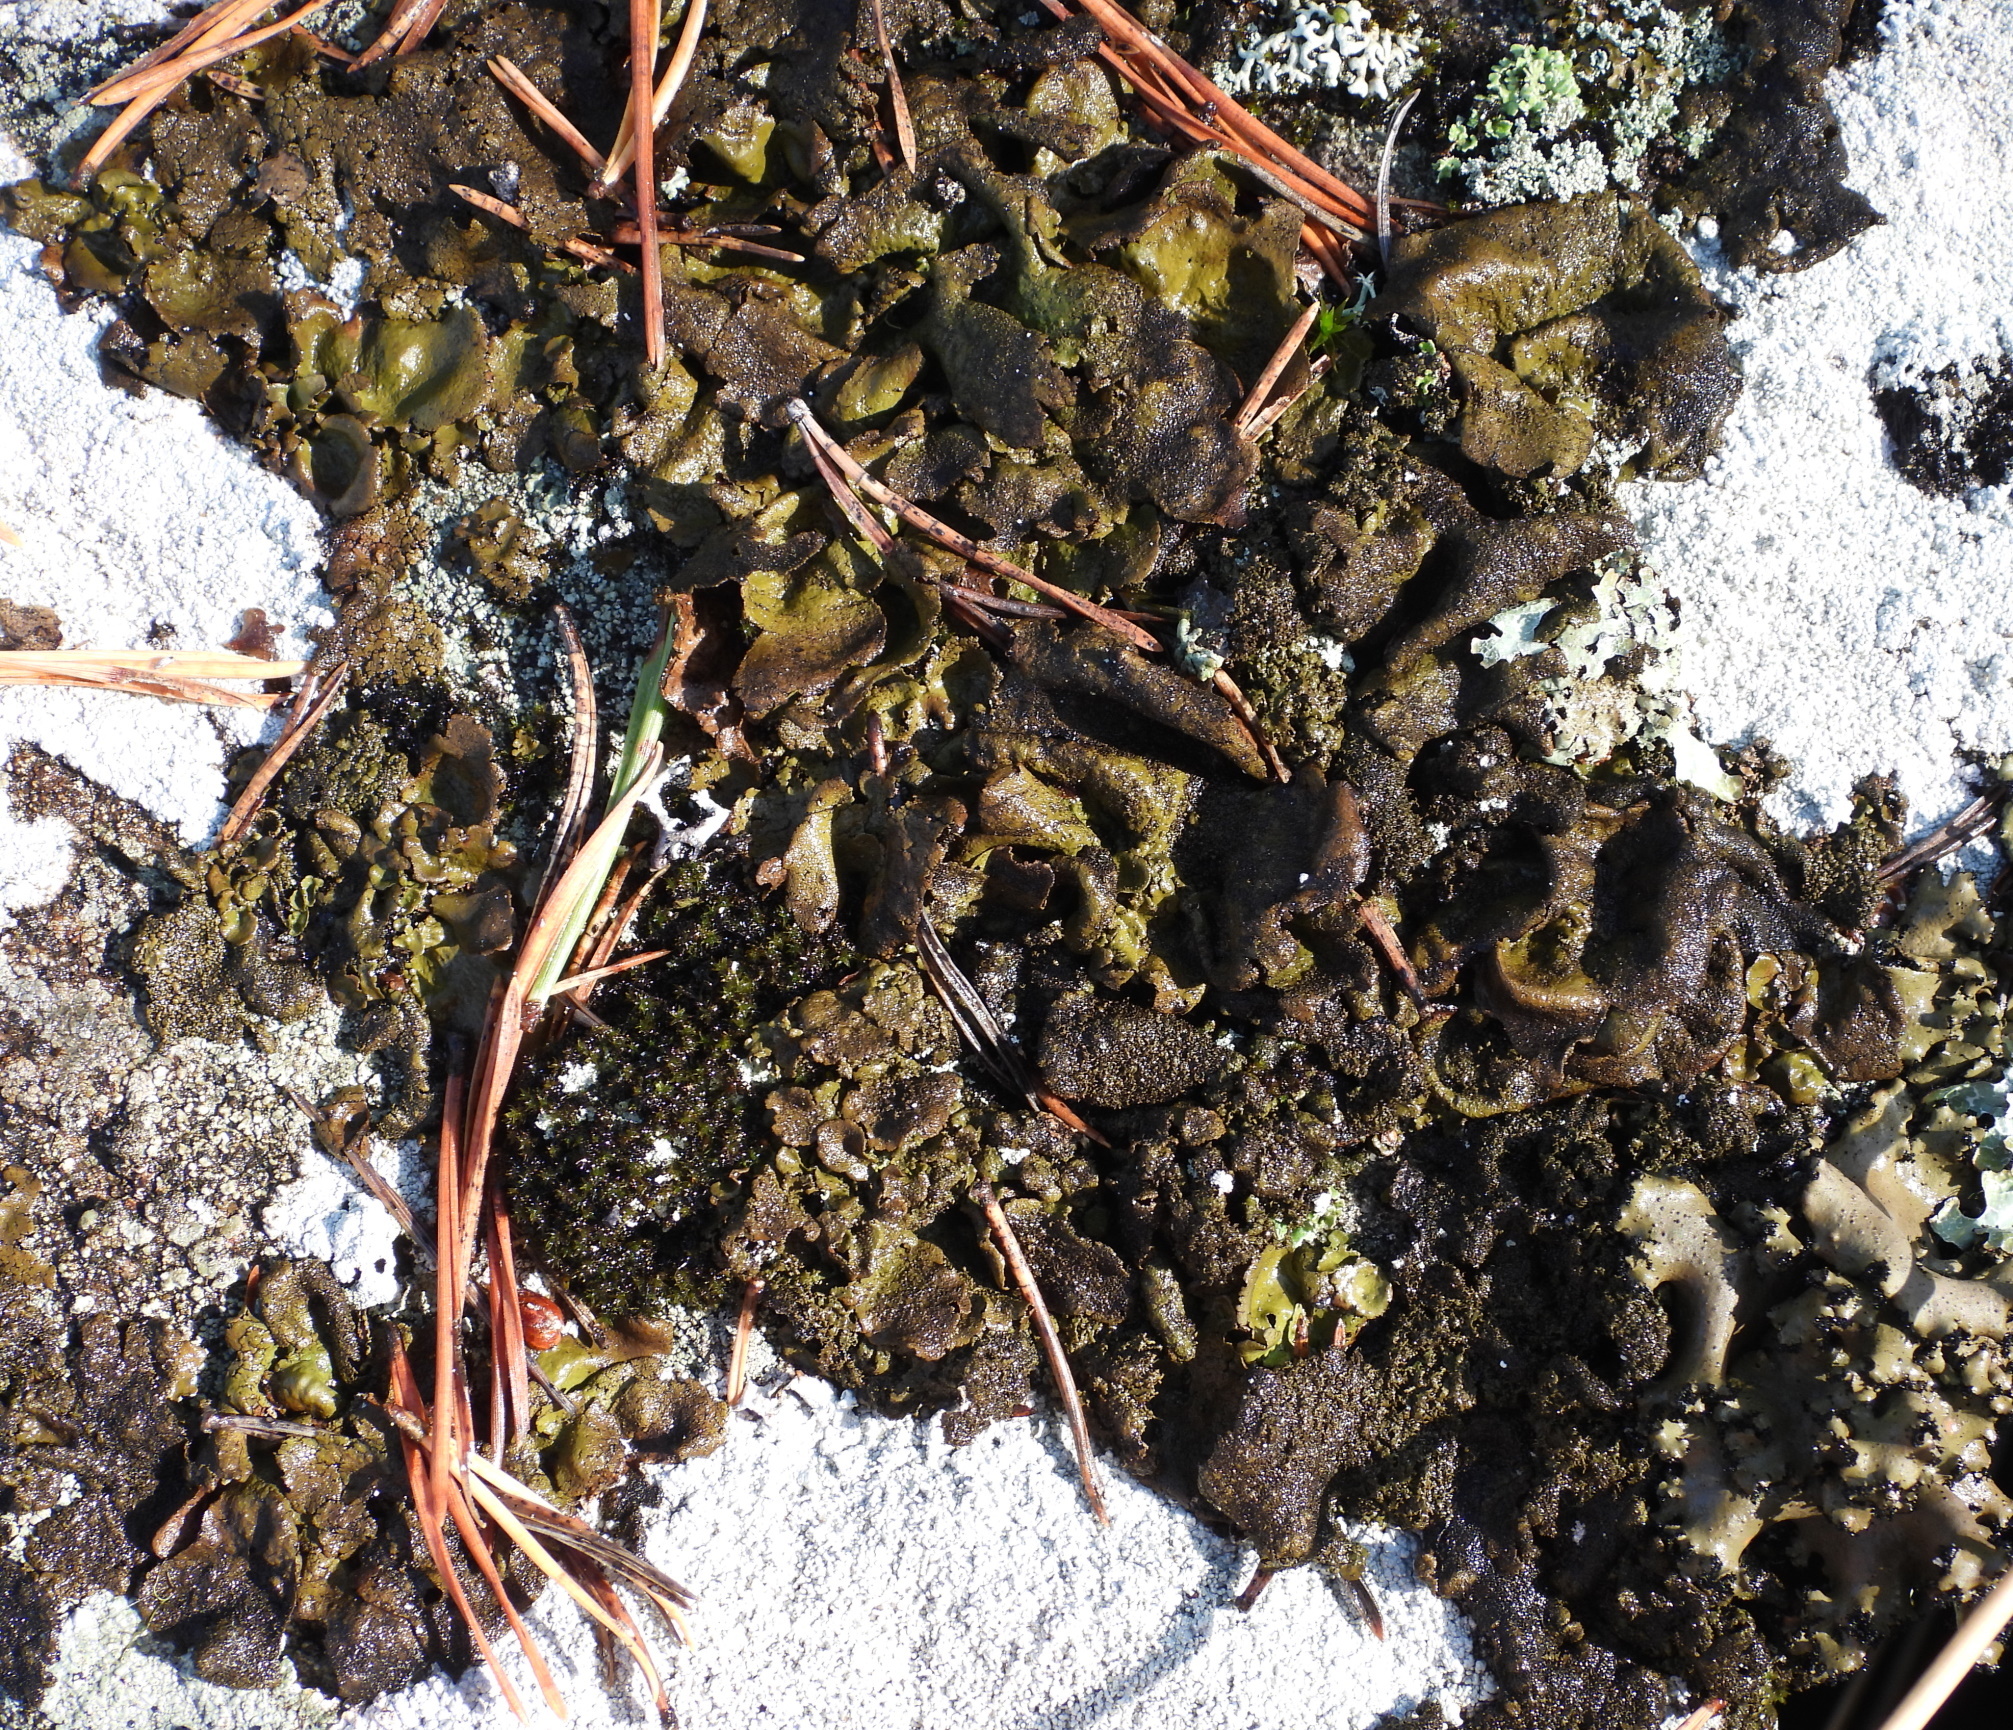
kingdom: Fungi
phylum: Ascomycota
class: Lecanoromycetes
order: Umbilicariales
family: Umbilicariaceae
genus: Umbilicaria
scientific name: Umbilicaria deusta
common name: Peppered rock tripe
